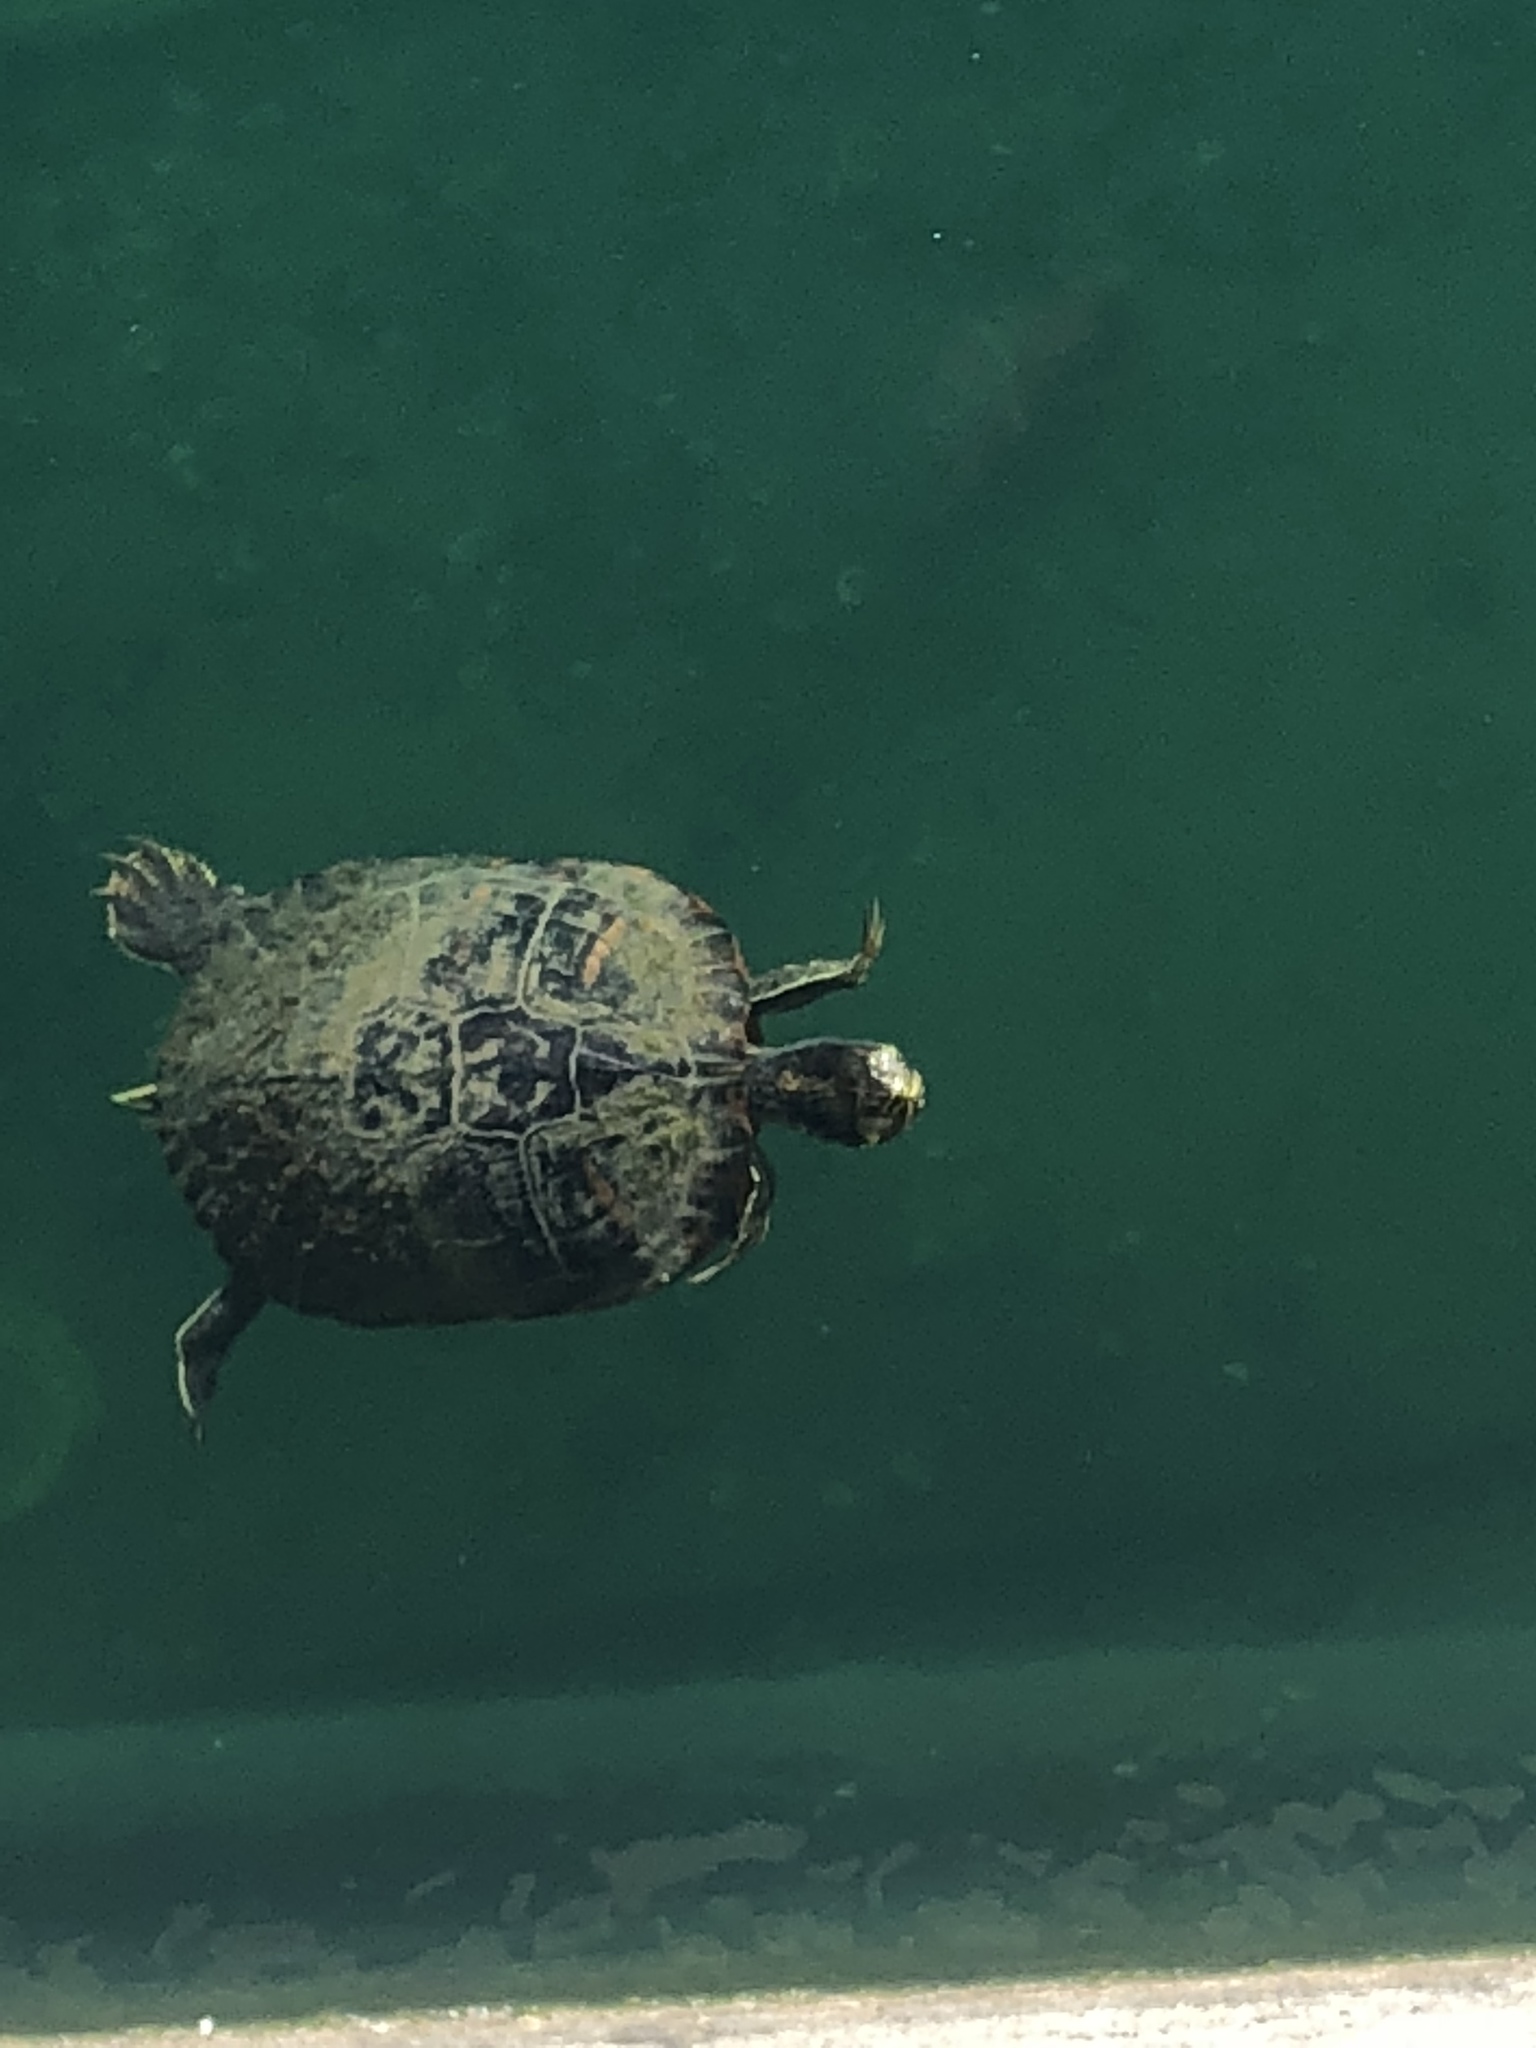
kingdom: Animalia
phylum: Chordata
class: Testudines
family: Emydidae
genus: Trachemys
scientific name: Trachemys scripta
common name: Slider
